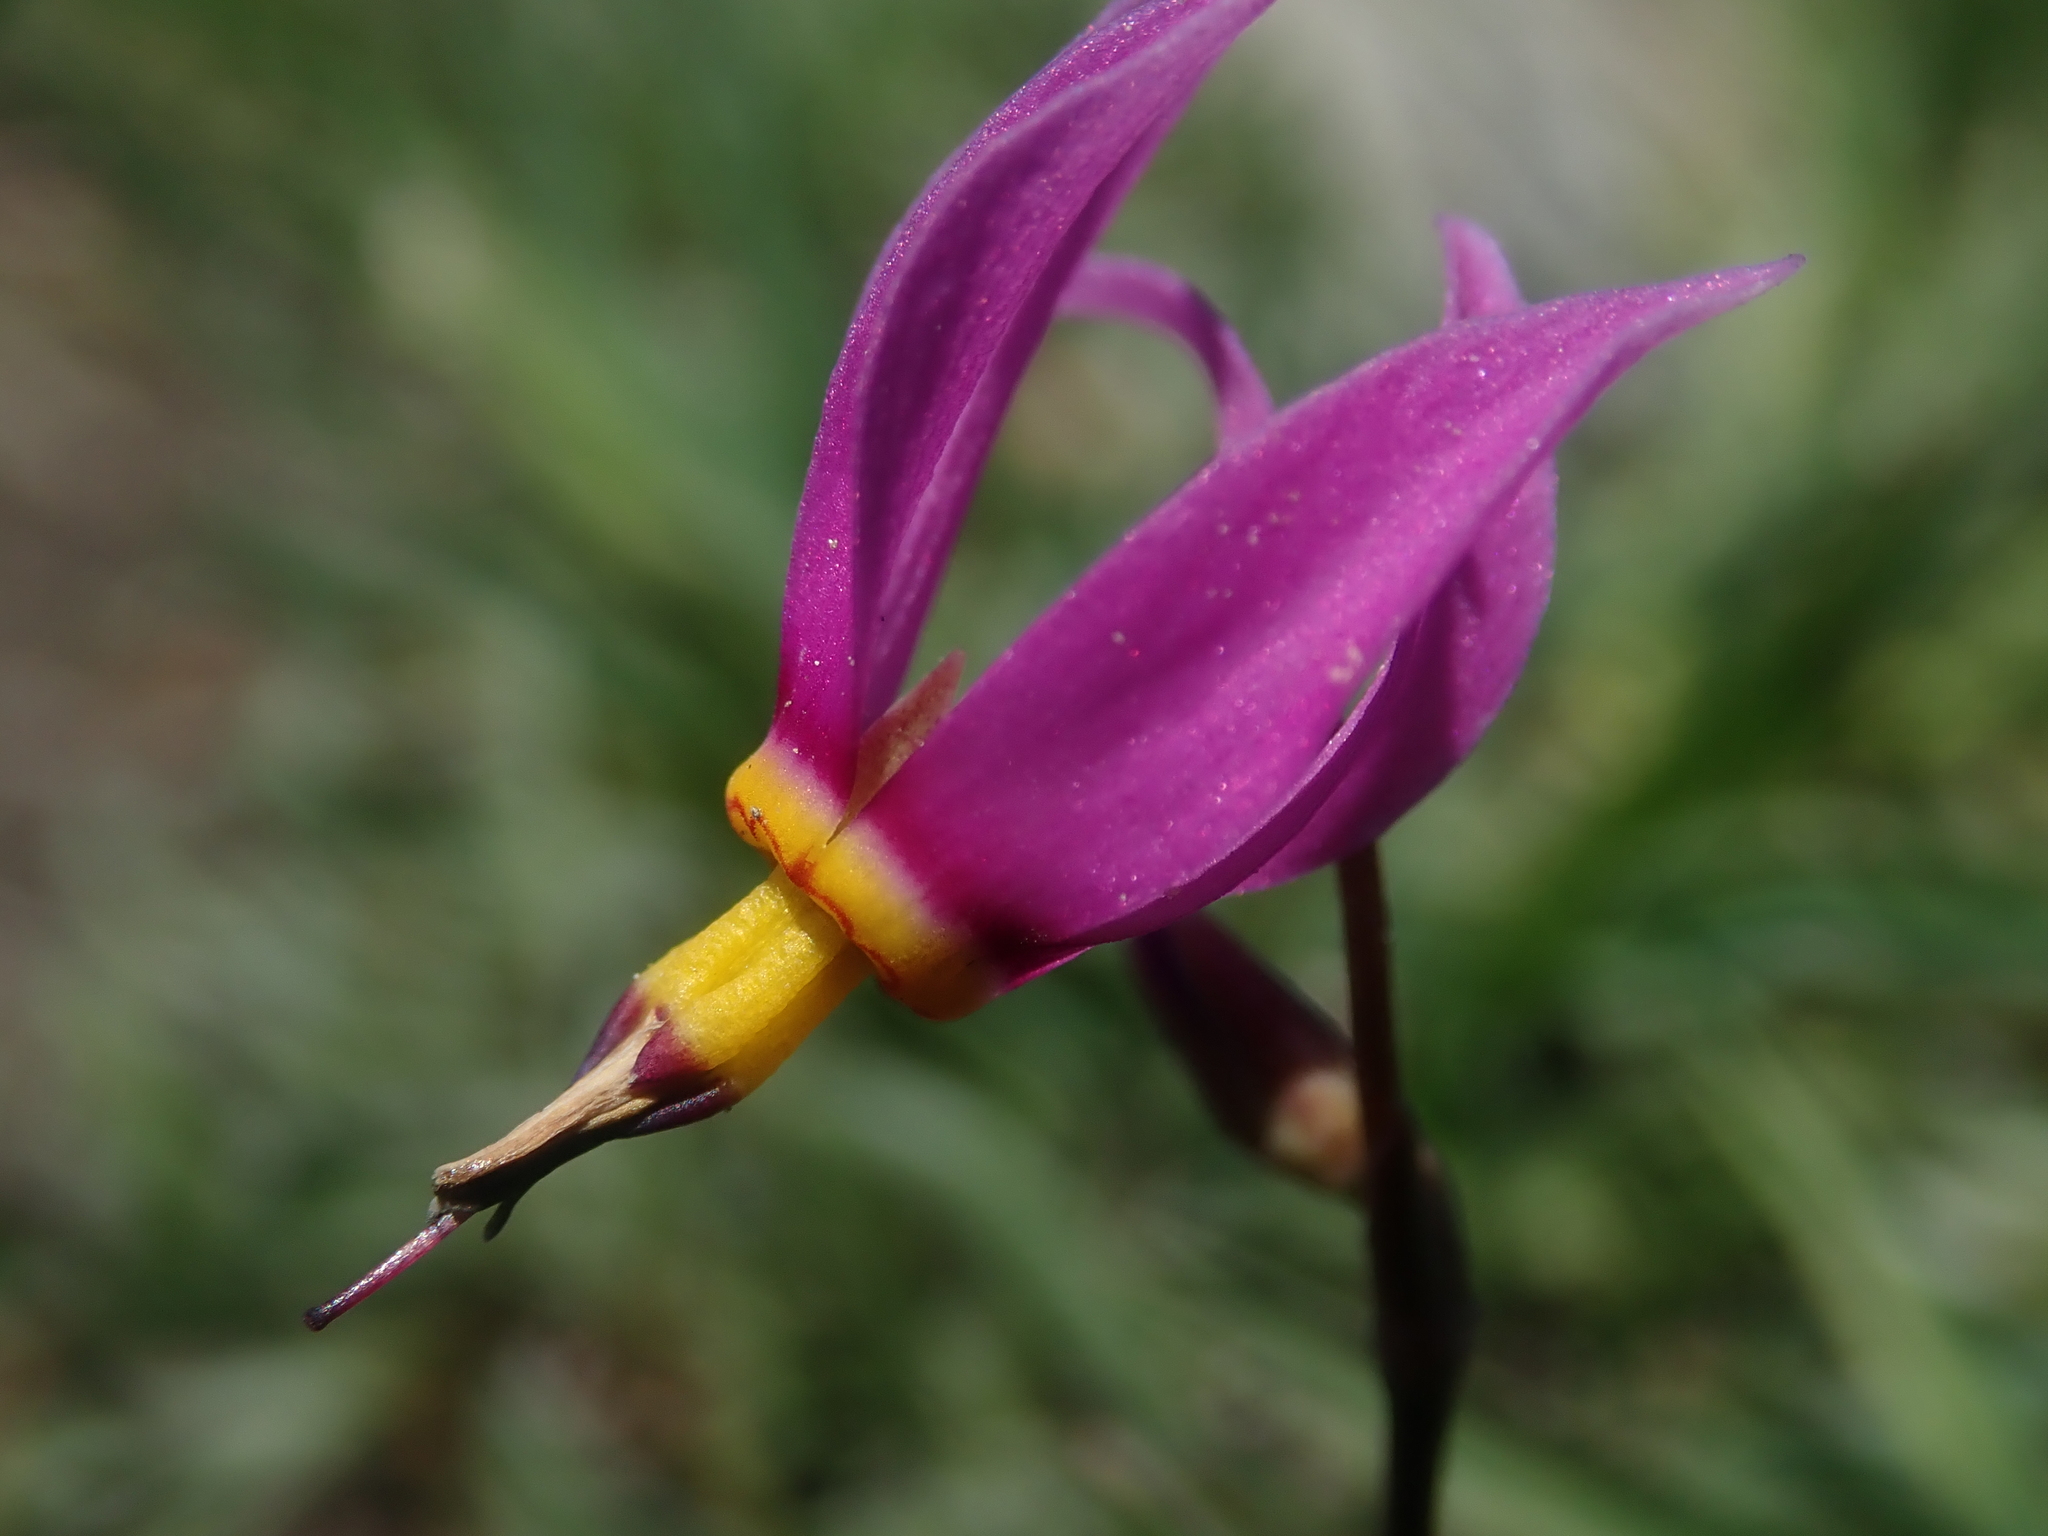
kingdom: Plantae
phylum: Tracheophyta
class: Magnoliopsida
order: Ericales
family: Primulaceae
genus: Dodecatheon
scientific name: Dodecatheon pulchellum
